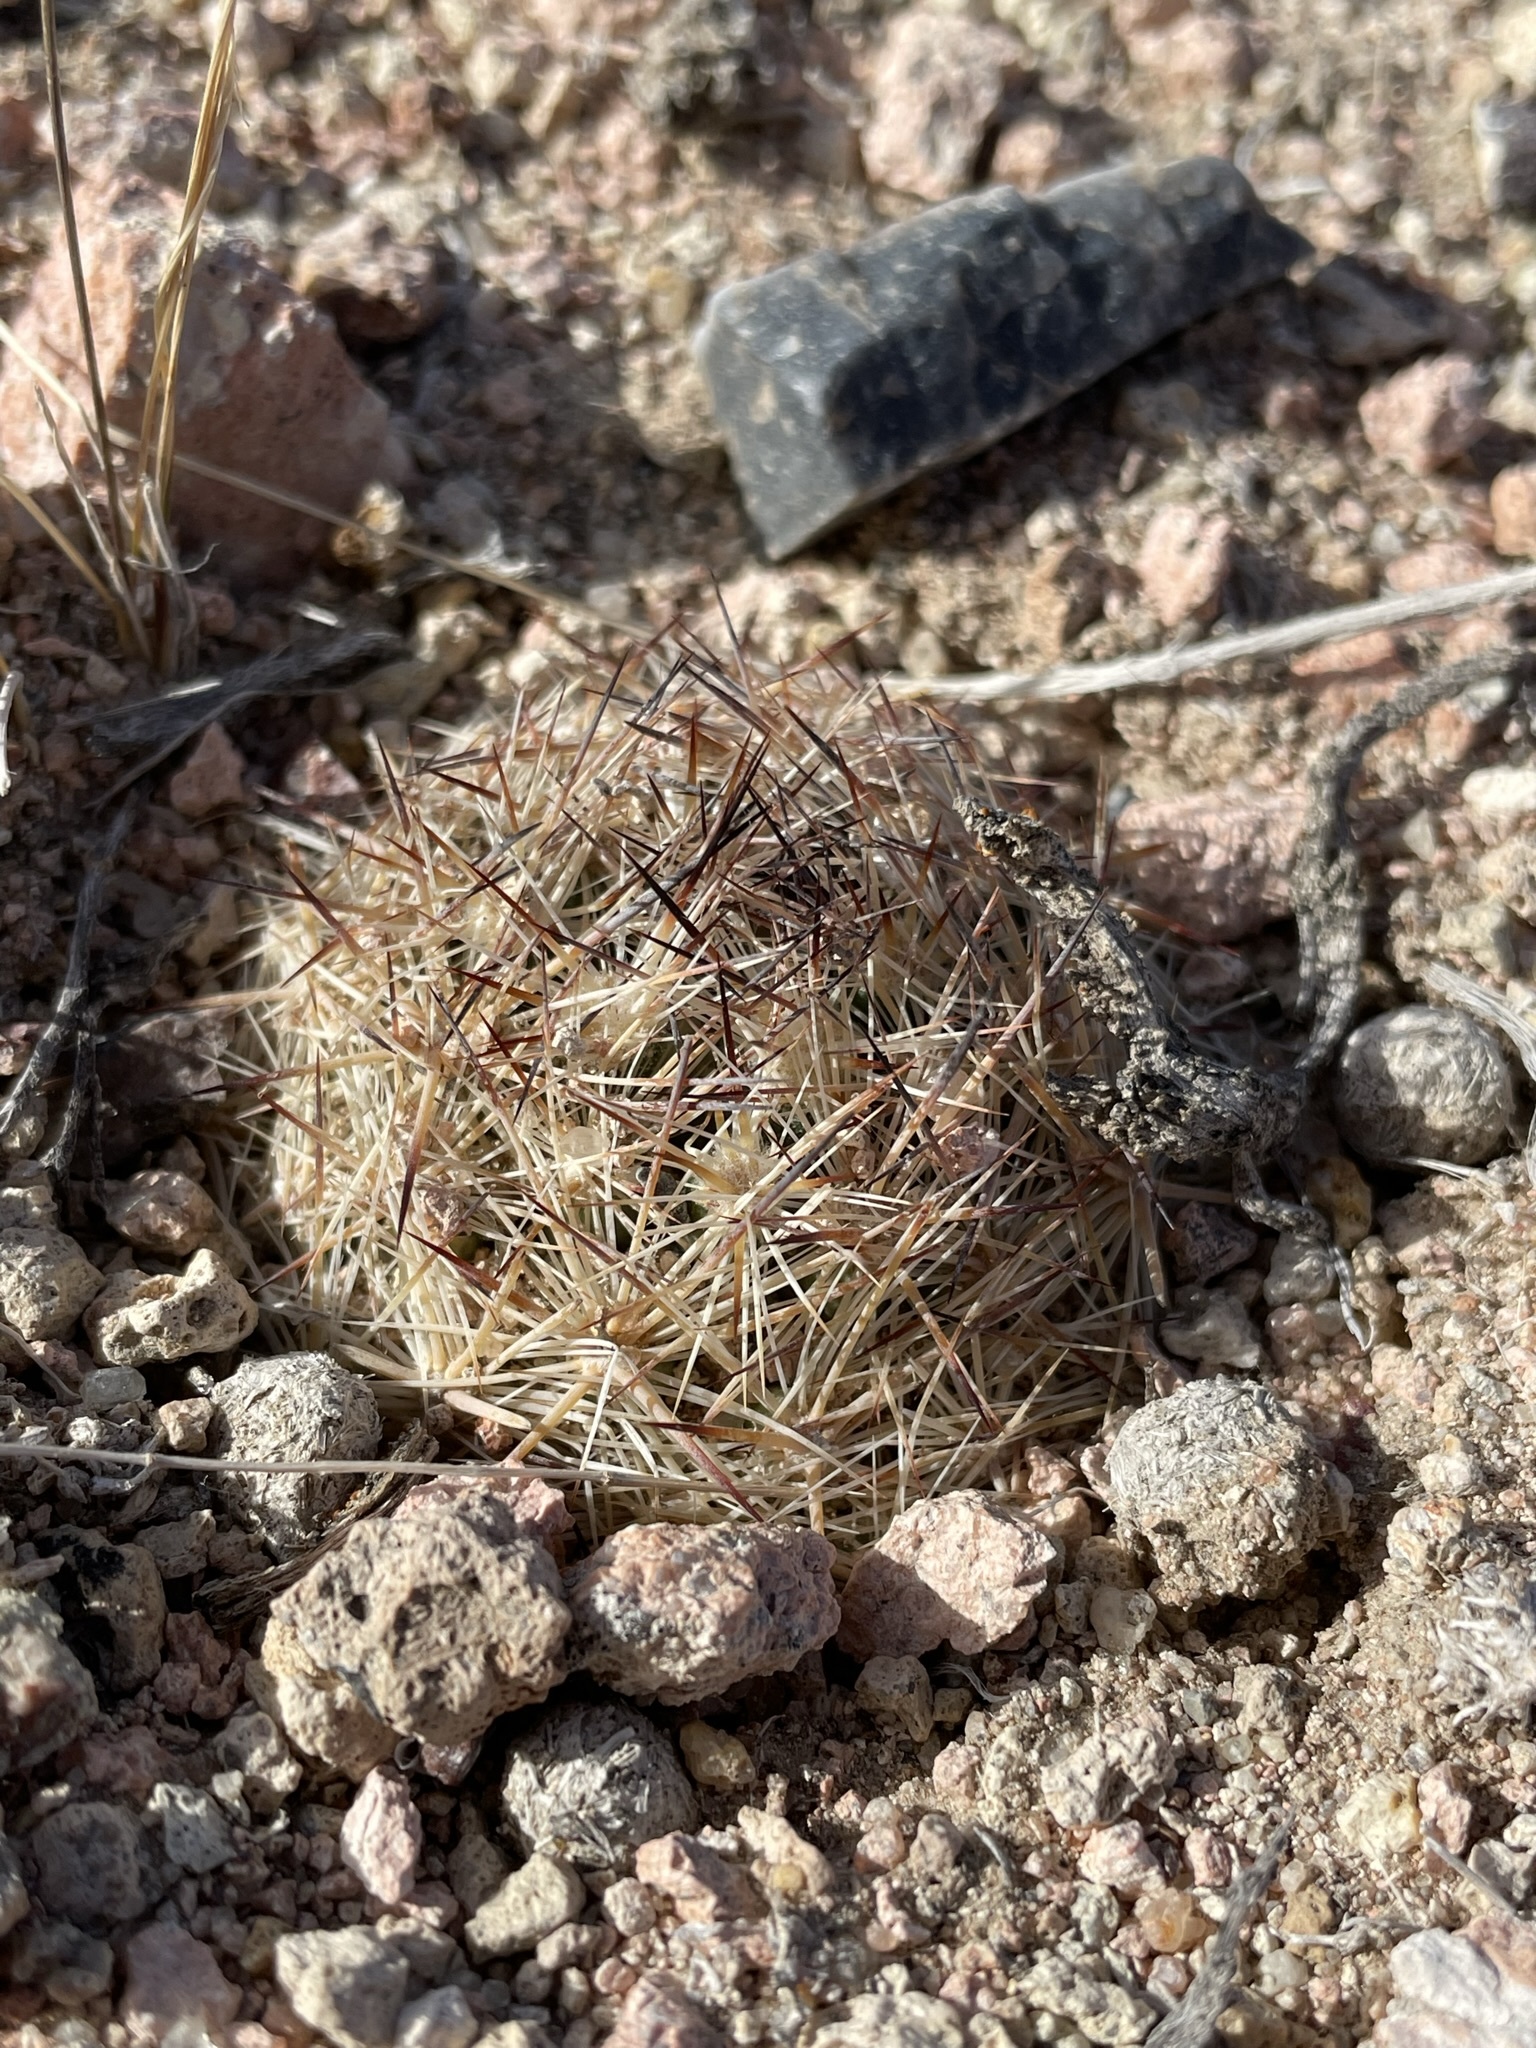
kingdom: Plantae
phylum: Tracheophyta
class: Magnoliopsida
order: Caryophyllales
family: Cactaceae
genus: Pelecyphora
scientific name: Pelecyphora vivipara
